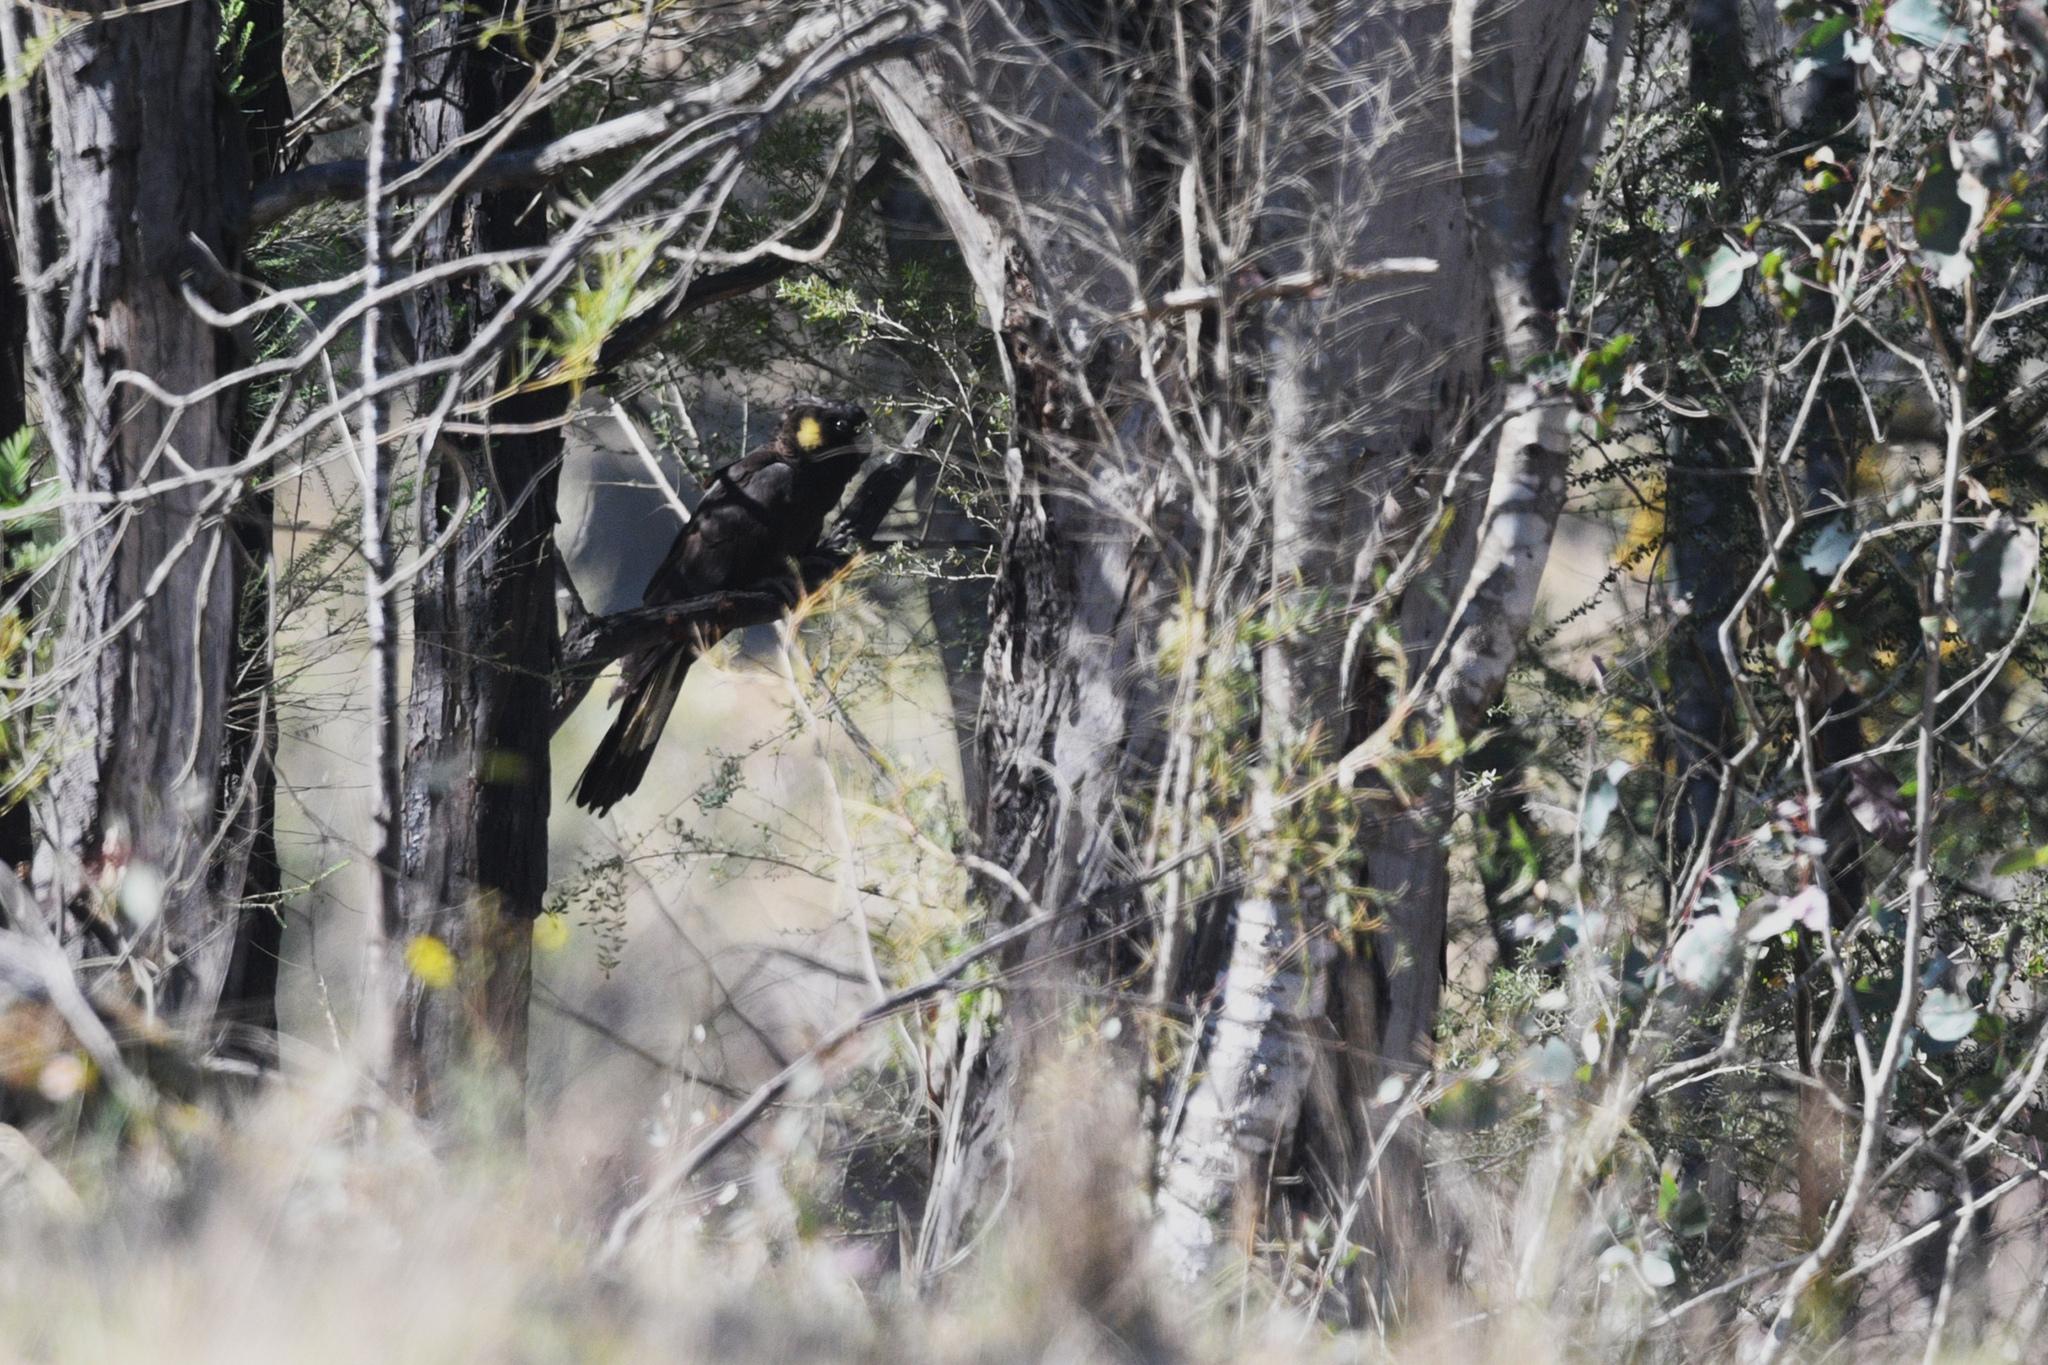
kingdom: Animalia
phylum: Chordata
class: Aves
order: Psittaciformes
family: Cacatuidae
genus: Zanda
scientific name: Zanda funerea
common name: Yellow-tailed black-cockatoo
